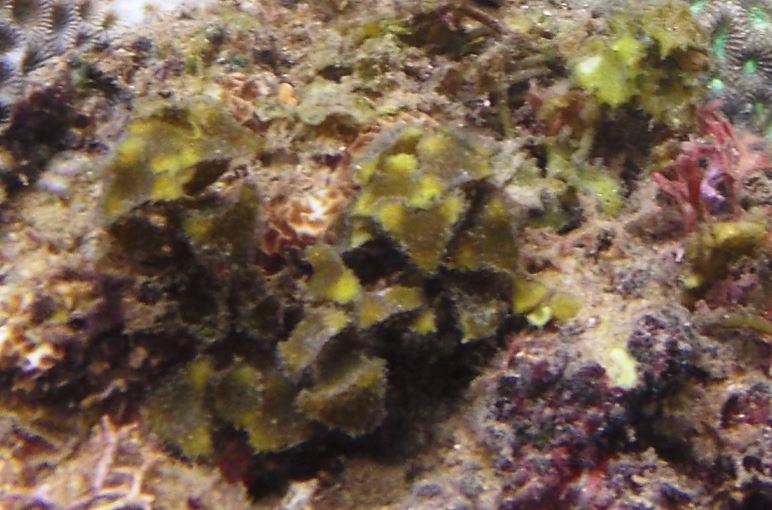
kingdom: Chromista
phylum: Ochrophyta
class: Phaeophyceae
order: Fucales
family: Sargassaceae
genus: Turbinaria
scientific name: Turbinaria decurrens
